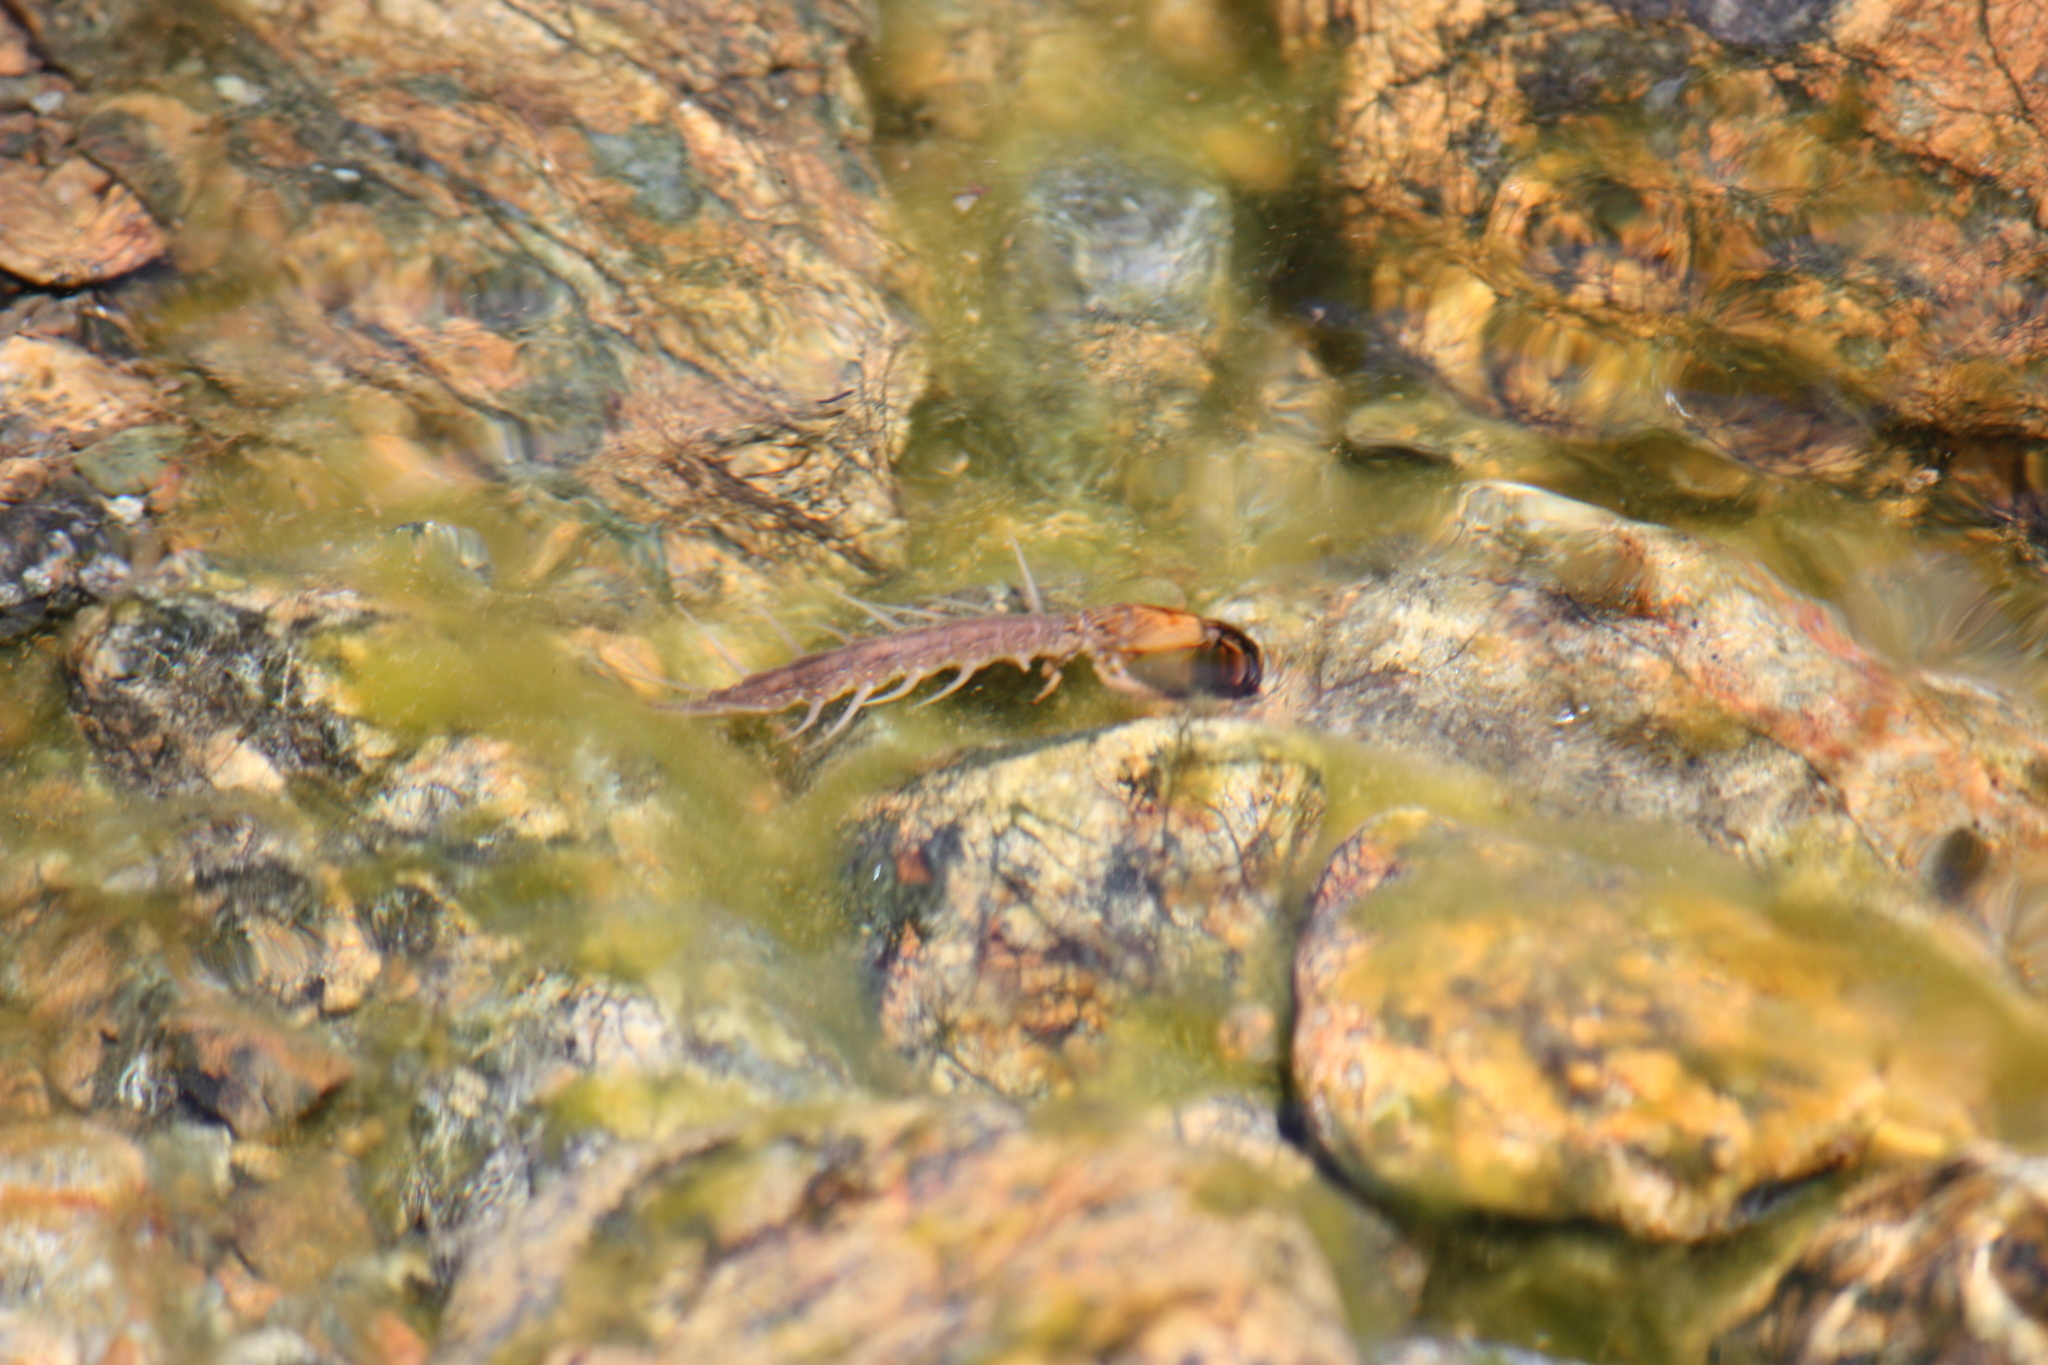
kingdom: Animalia
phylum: Arthropoda
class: Insecta
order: Megaloptera
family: Corydalidae
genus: Neohermes
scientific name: Neohermes filicornis
